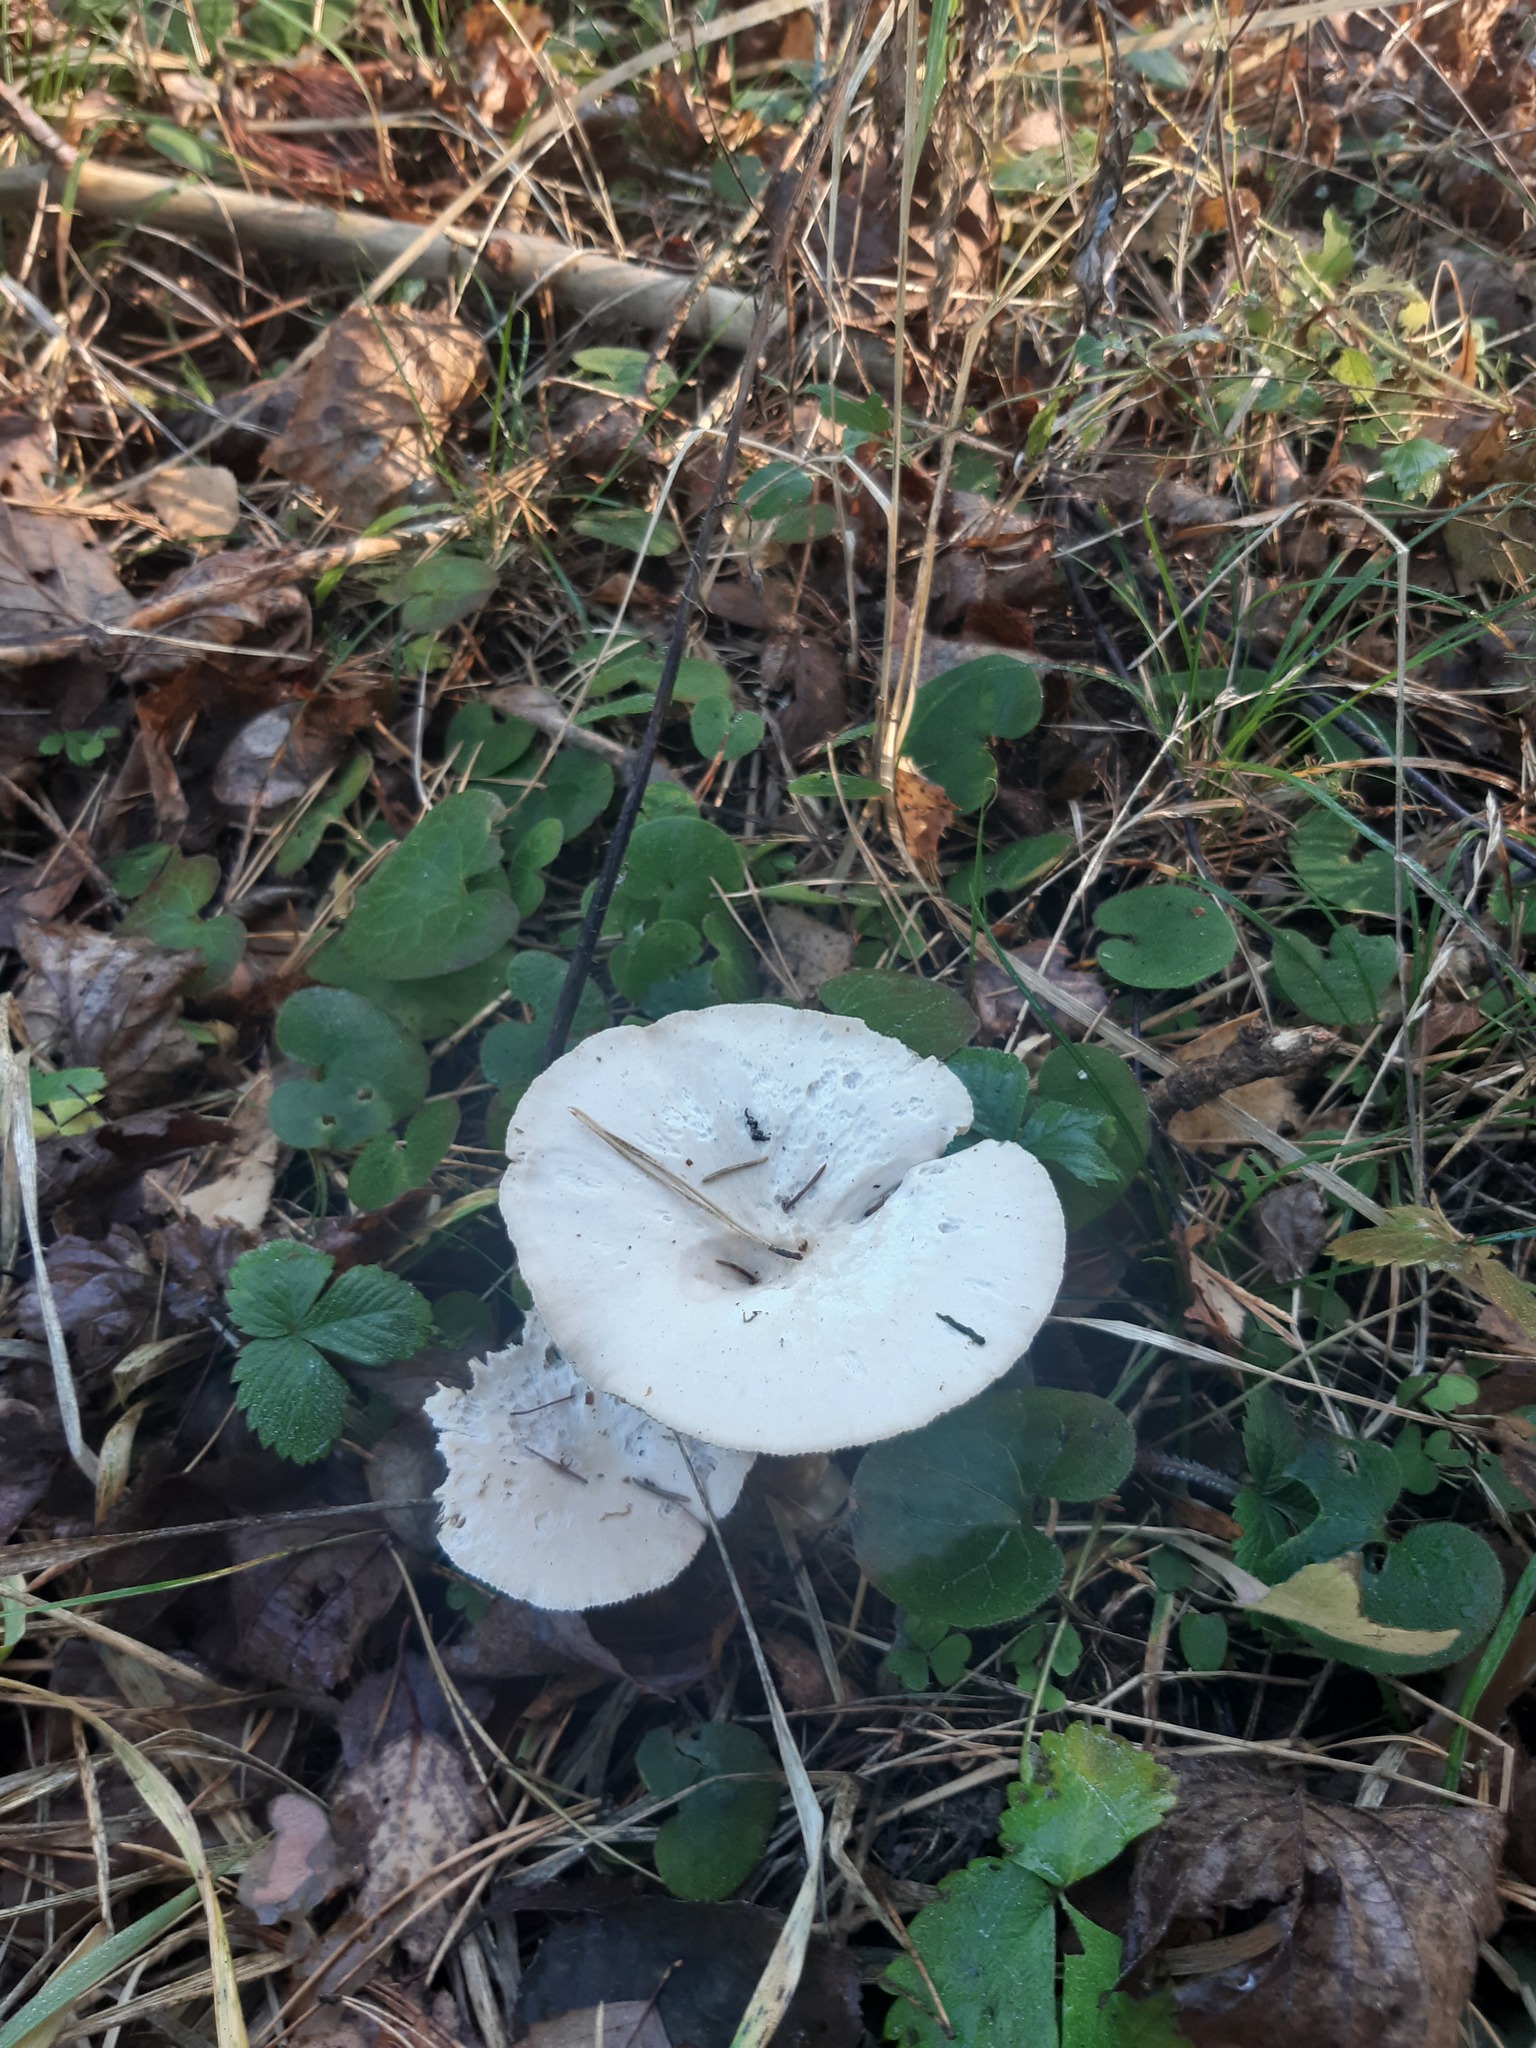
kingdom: Fungi
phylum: Basidiomycota
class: Agaricomycetes
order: Agaricales
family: Tricholomataceae
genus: Infundibulicybe
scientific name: Infundibulicybe geotropa
